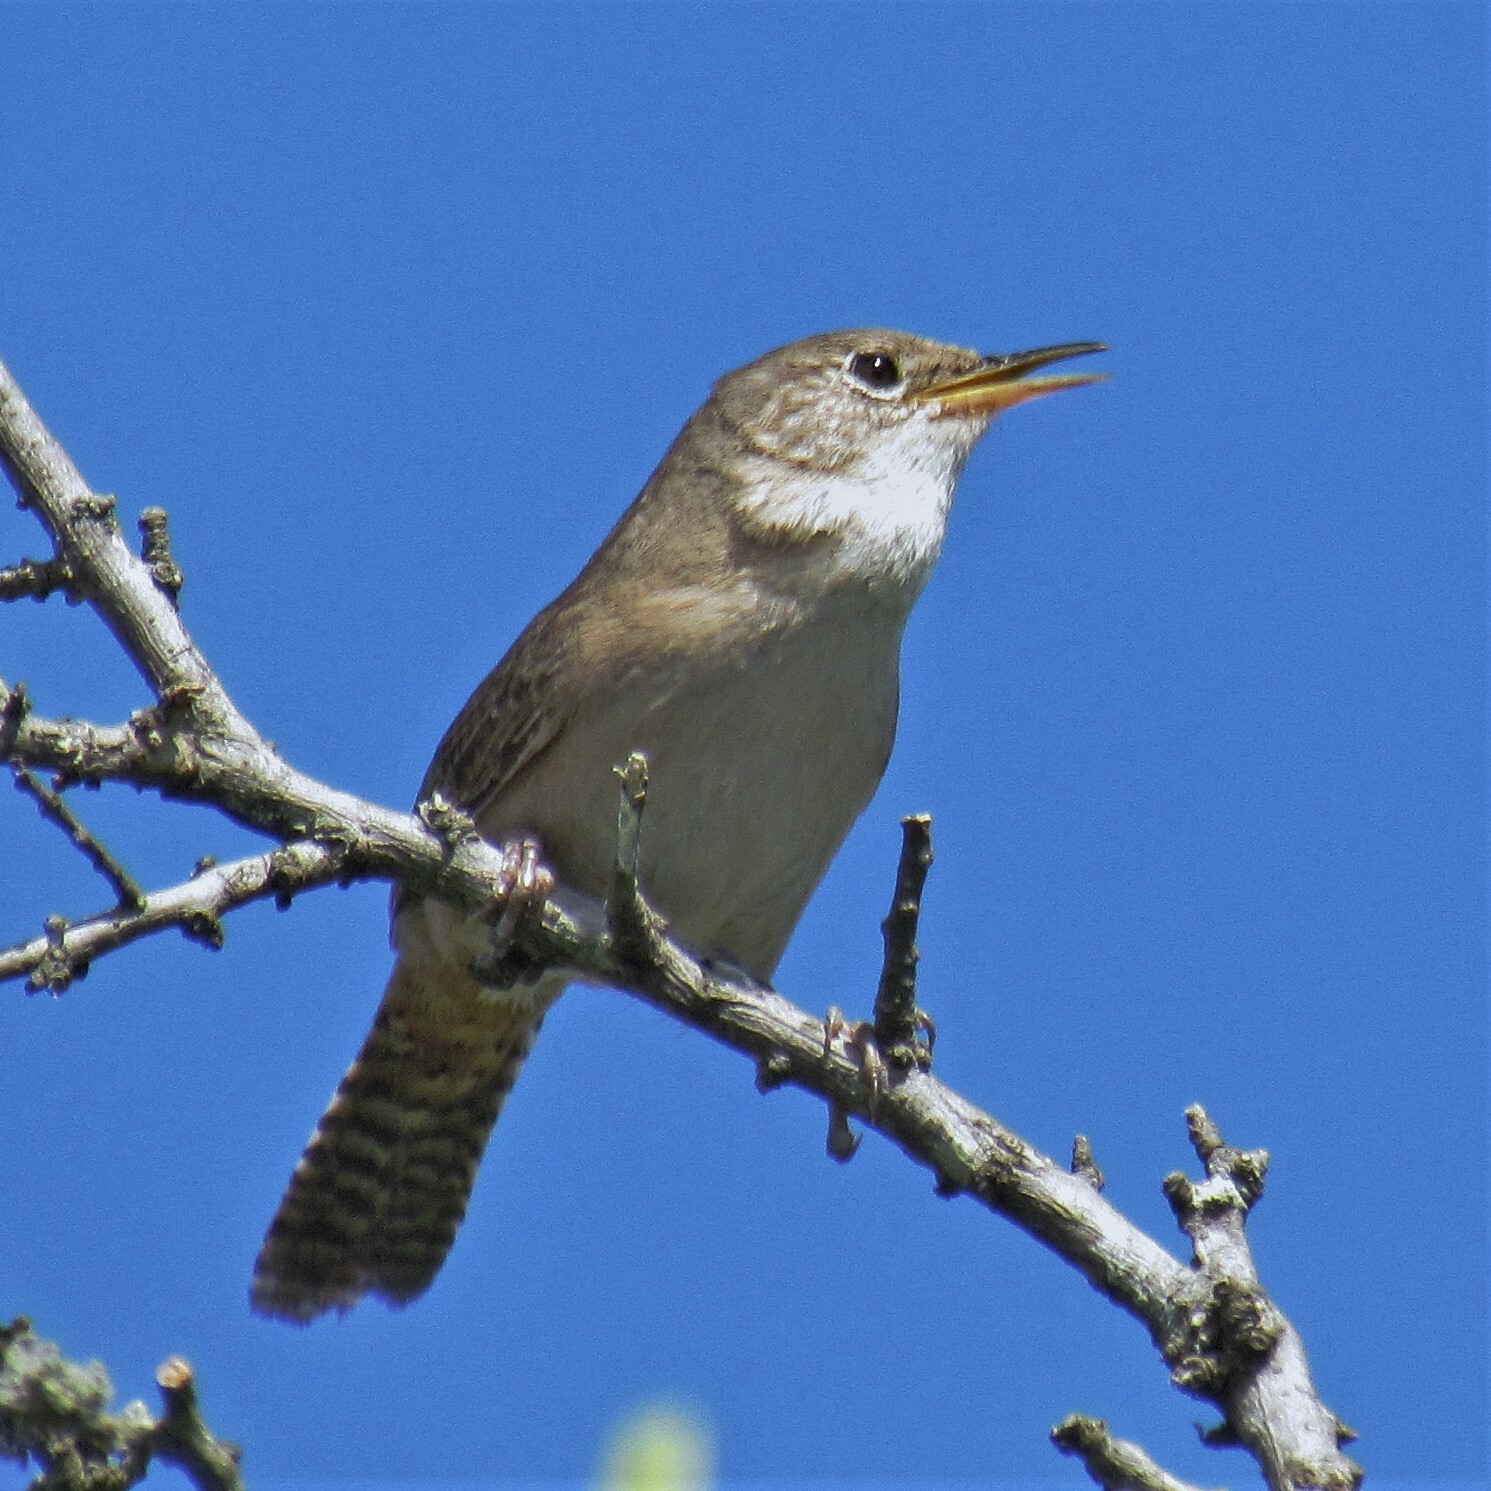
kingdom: Animalia
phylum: Chordata
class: Aves
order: Passeriformes
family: Troglodytidae
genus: Troglodytes
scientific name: Troglodytes aedon
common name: House wren
